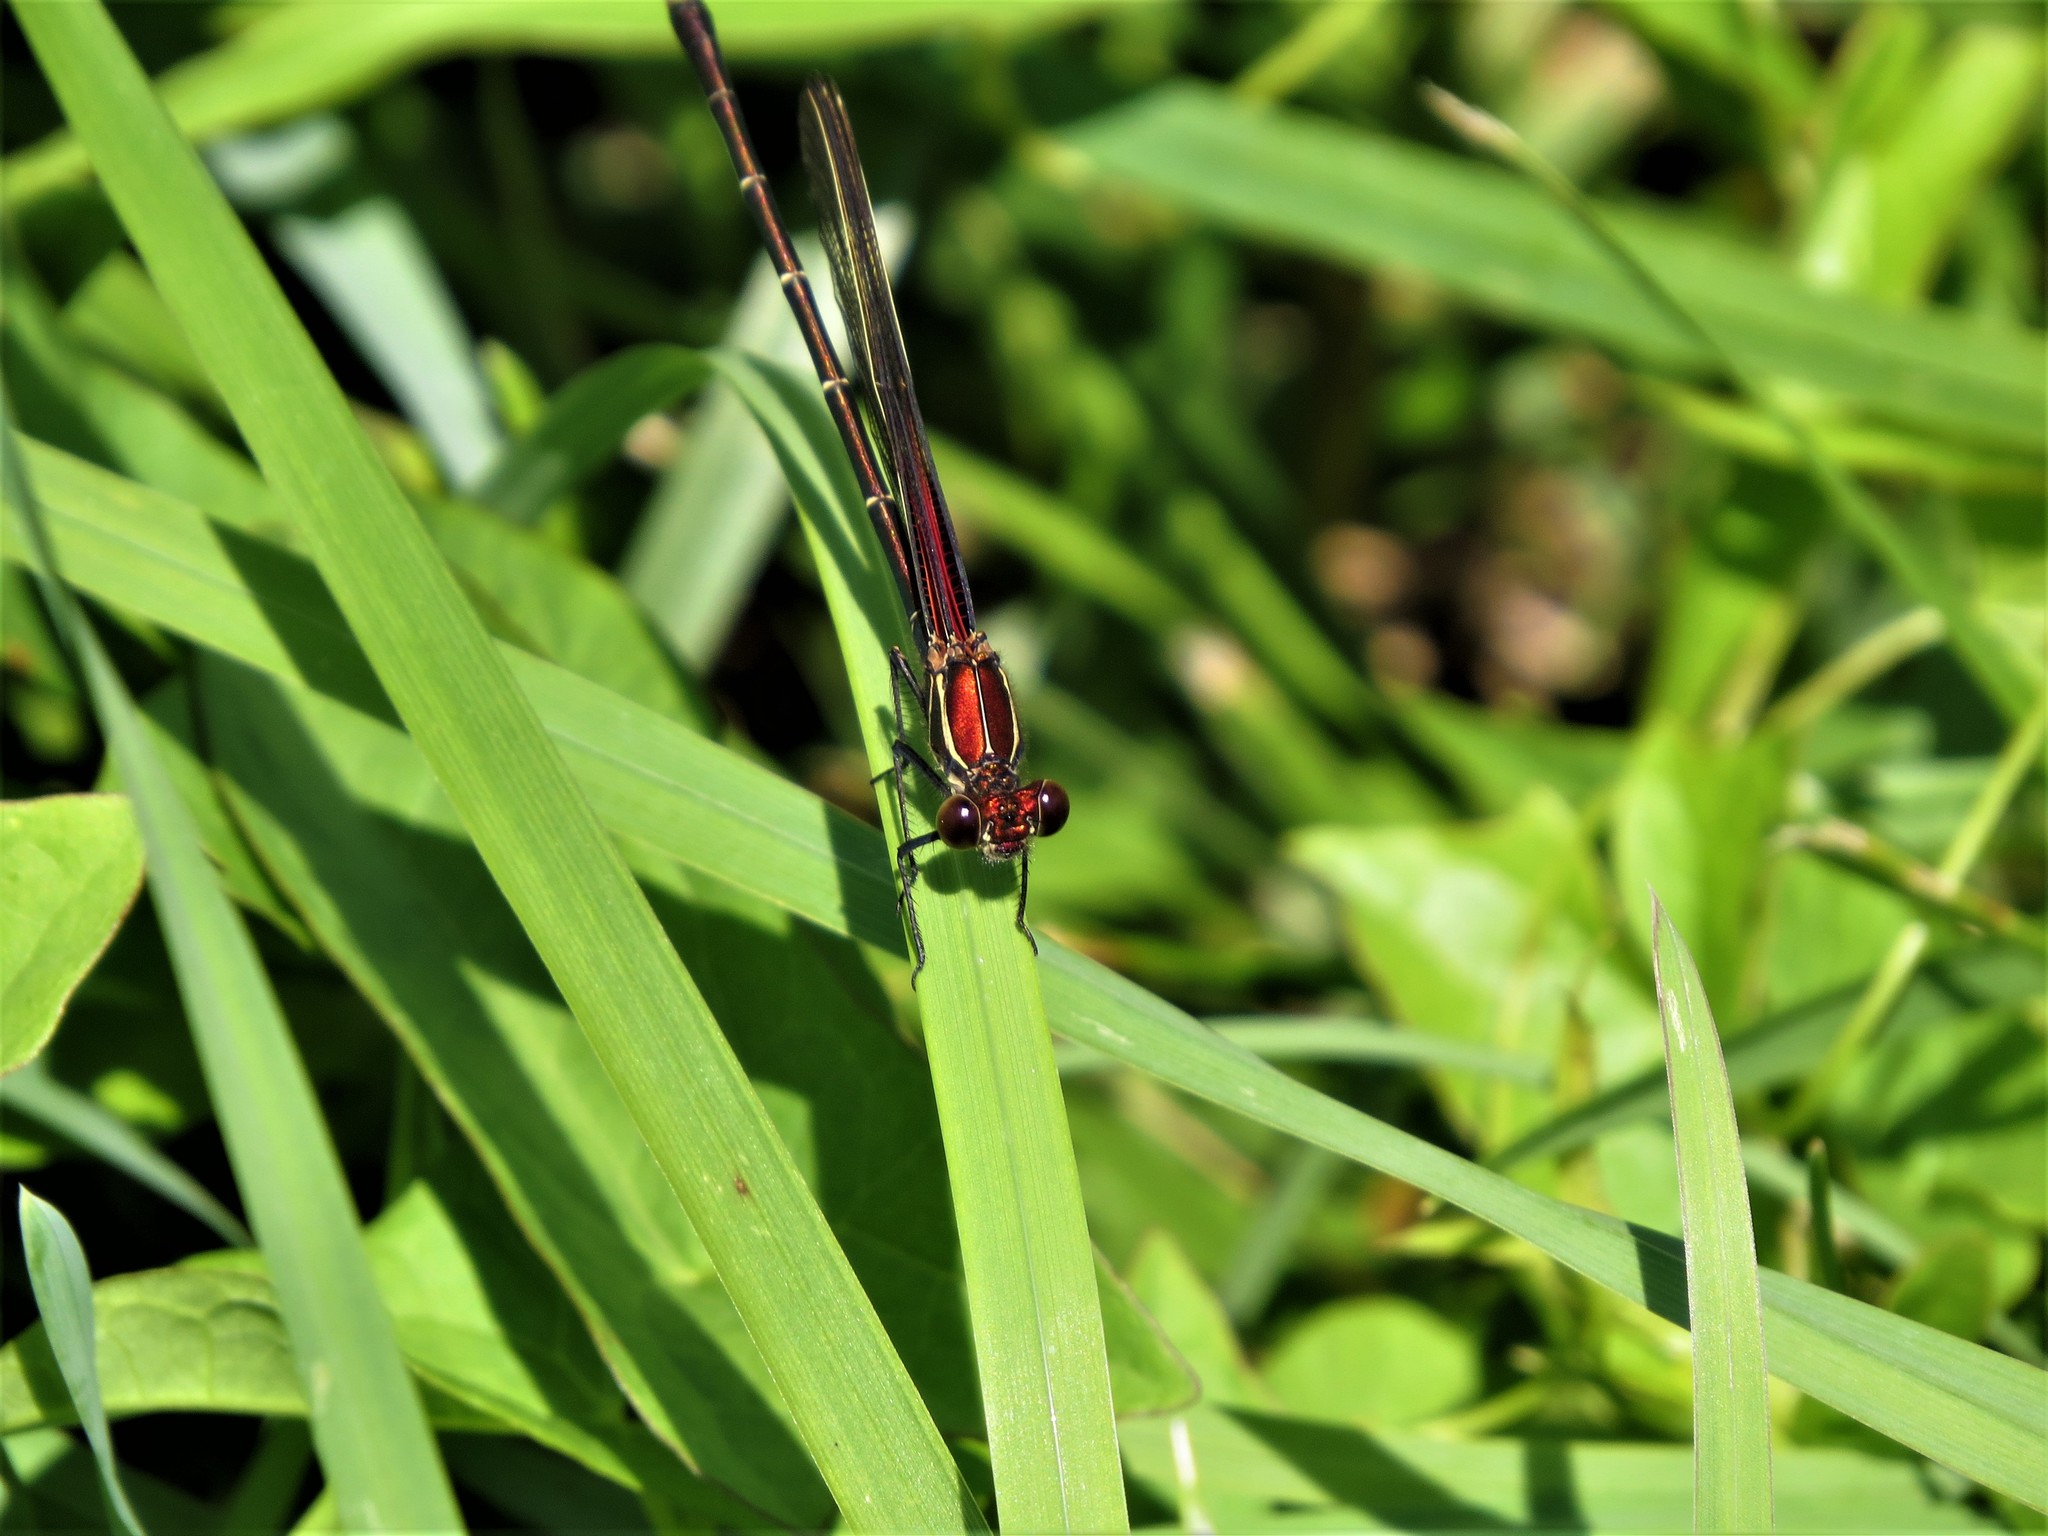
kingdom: Animalia
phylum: Arthropoda
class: Insecta
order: Odonata
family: Calopterygidae
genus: Hetaerina
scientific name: Hetaerina americana
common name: American rubyspot
